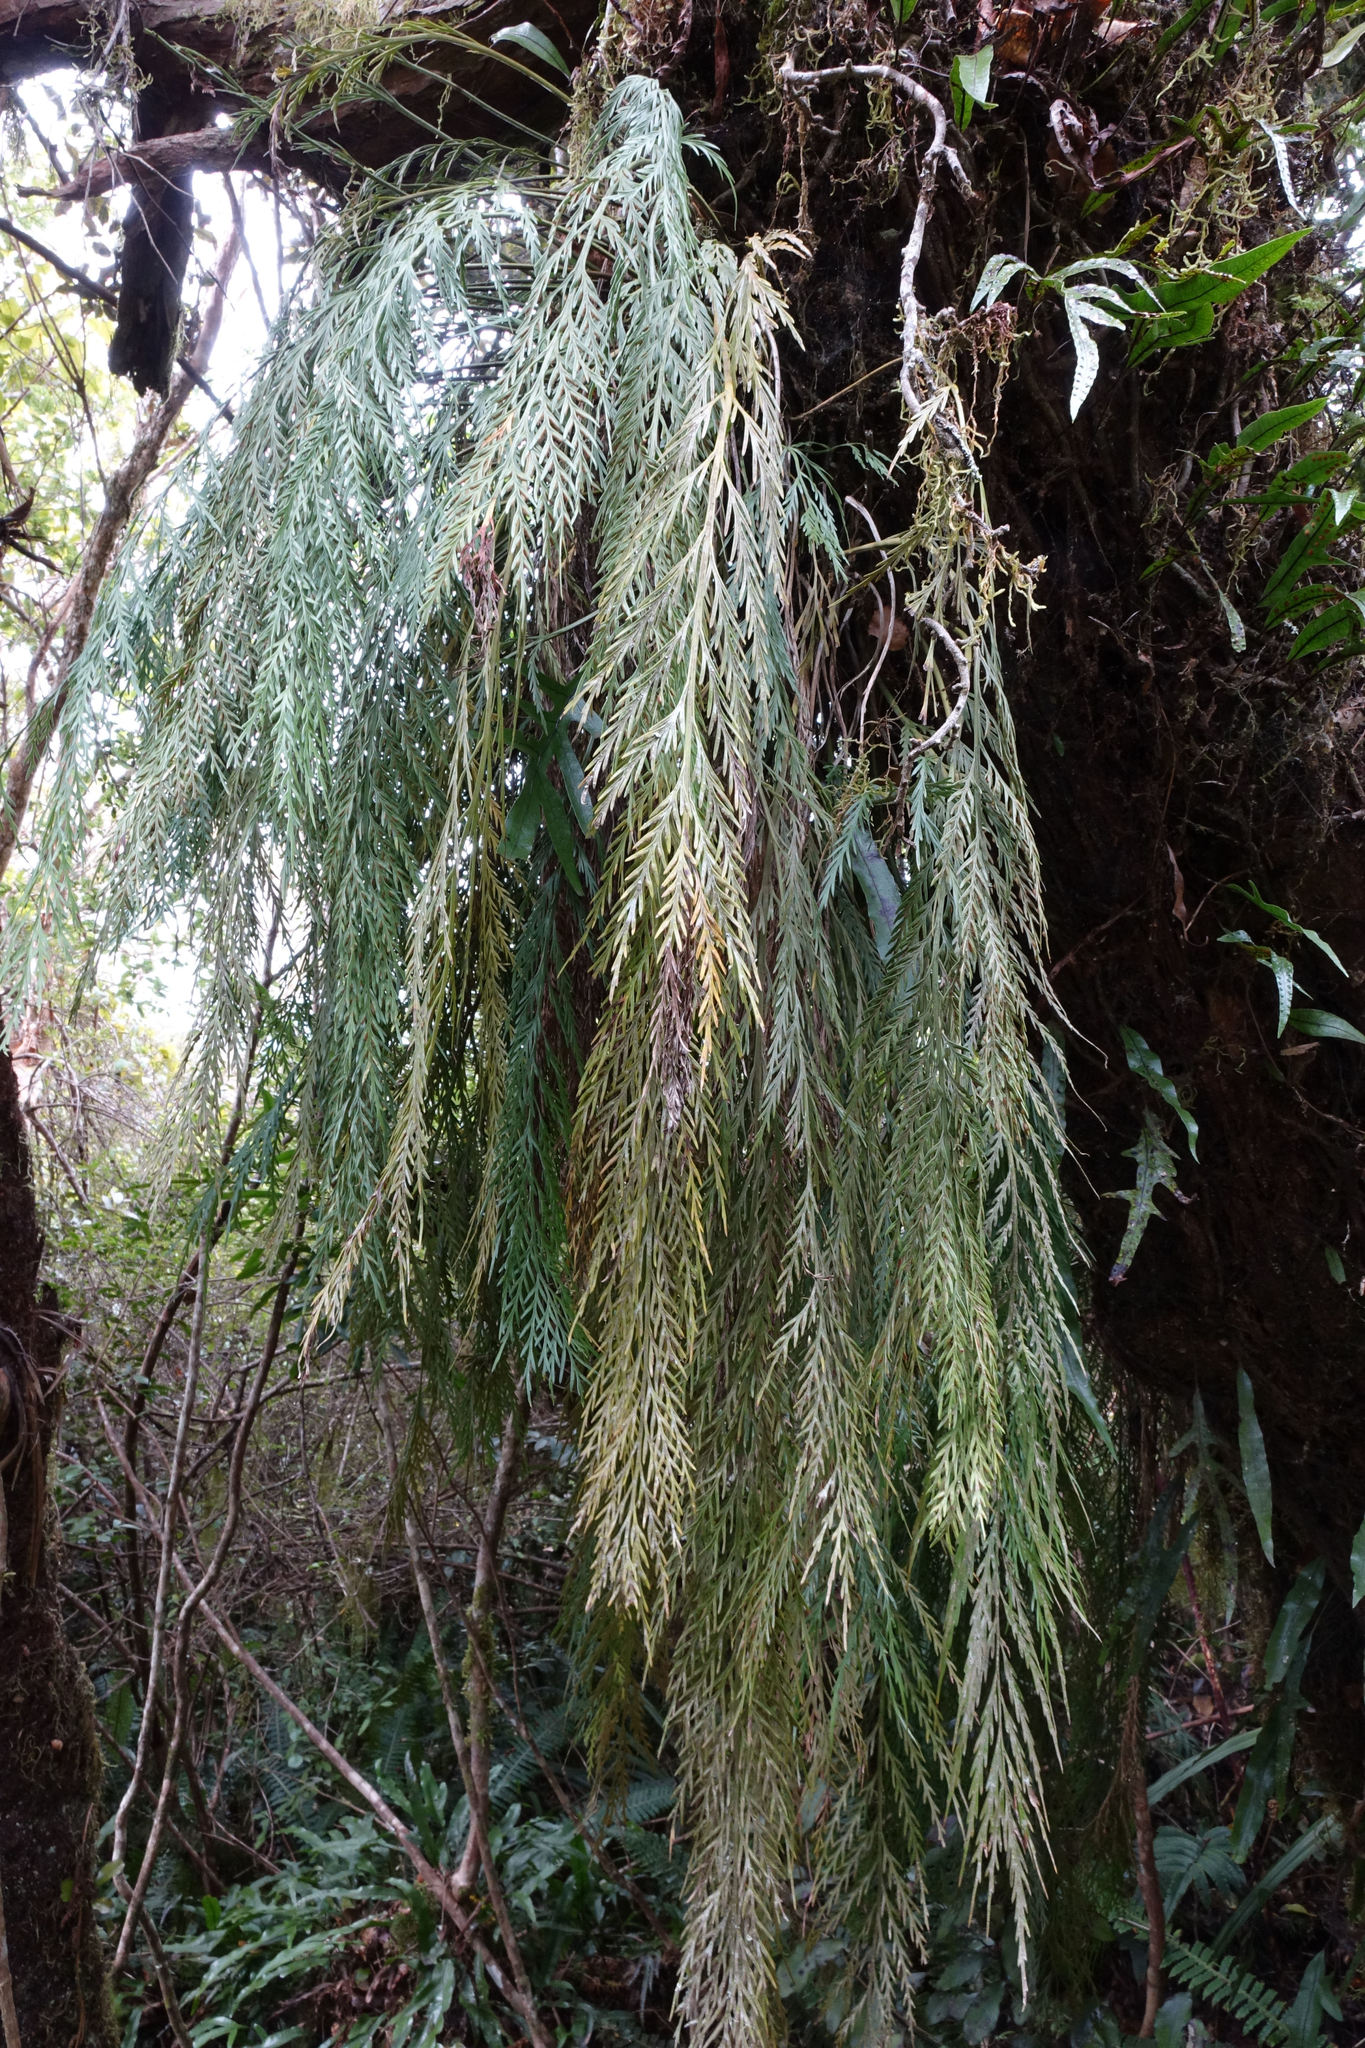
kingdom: Plantae
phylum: Tracheophyta
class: Polypodiopsida
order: Polypodiales
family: Aspleniaceae
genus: Asplenium
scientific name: Asplenium flaccidum
